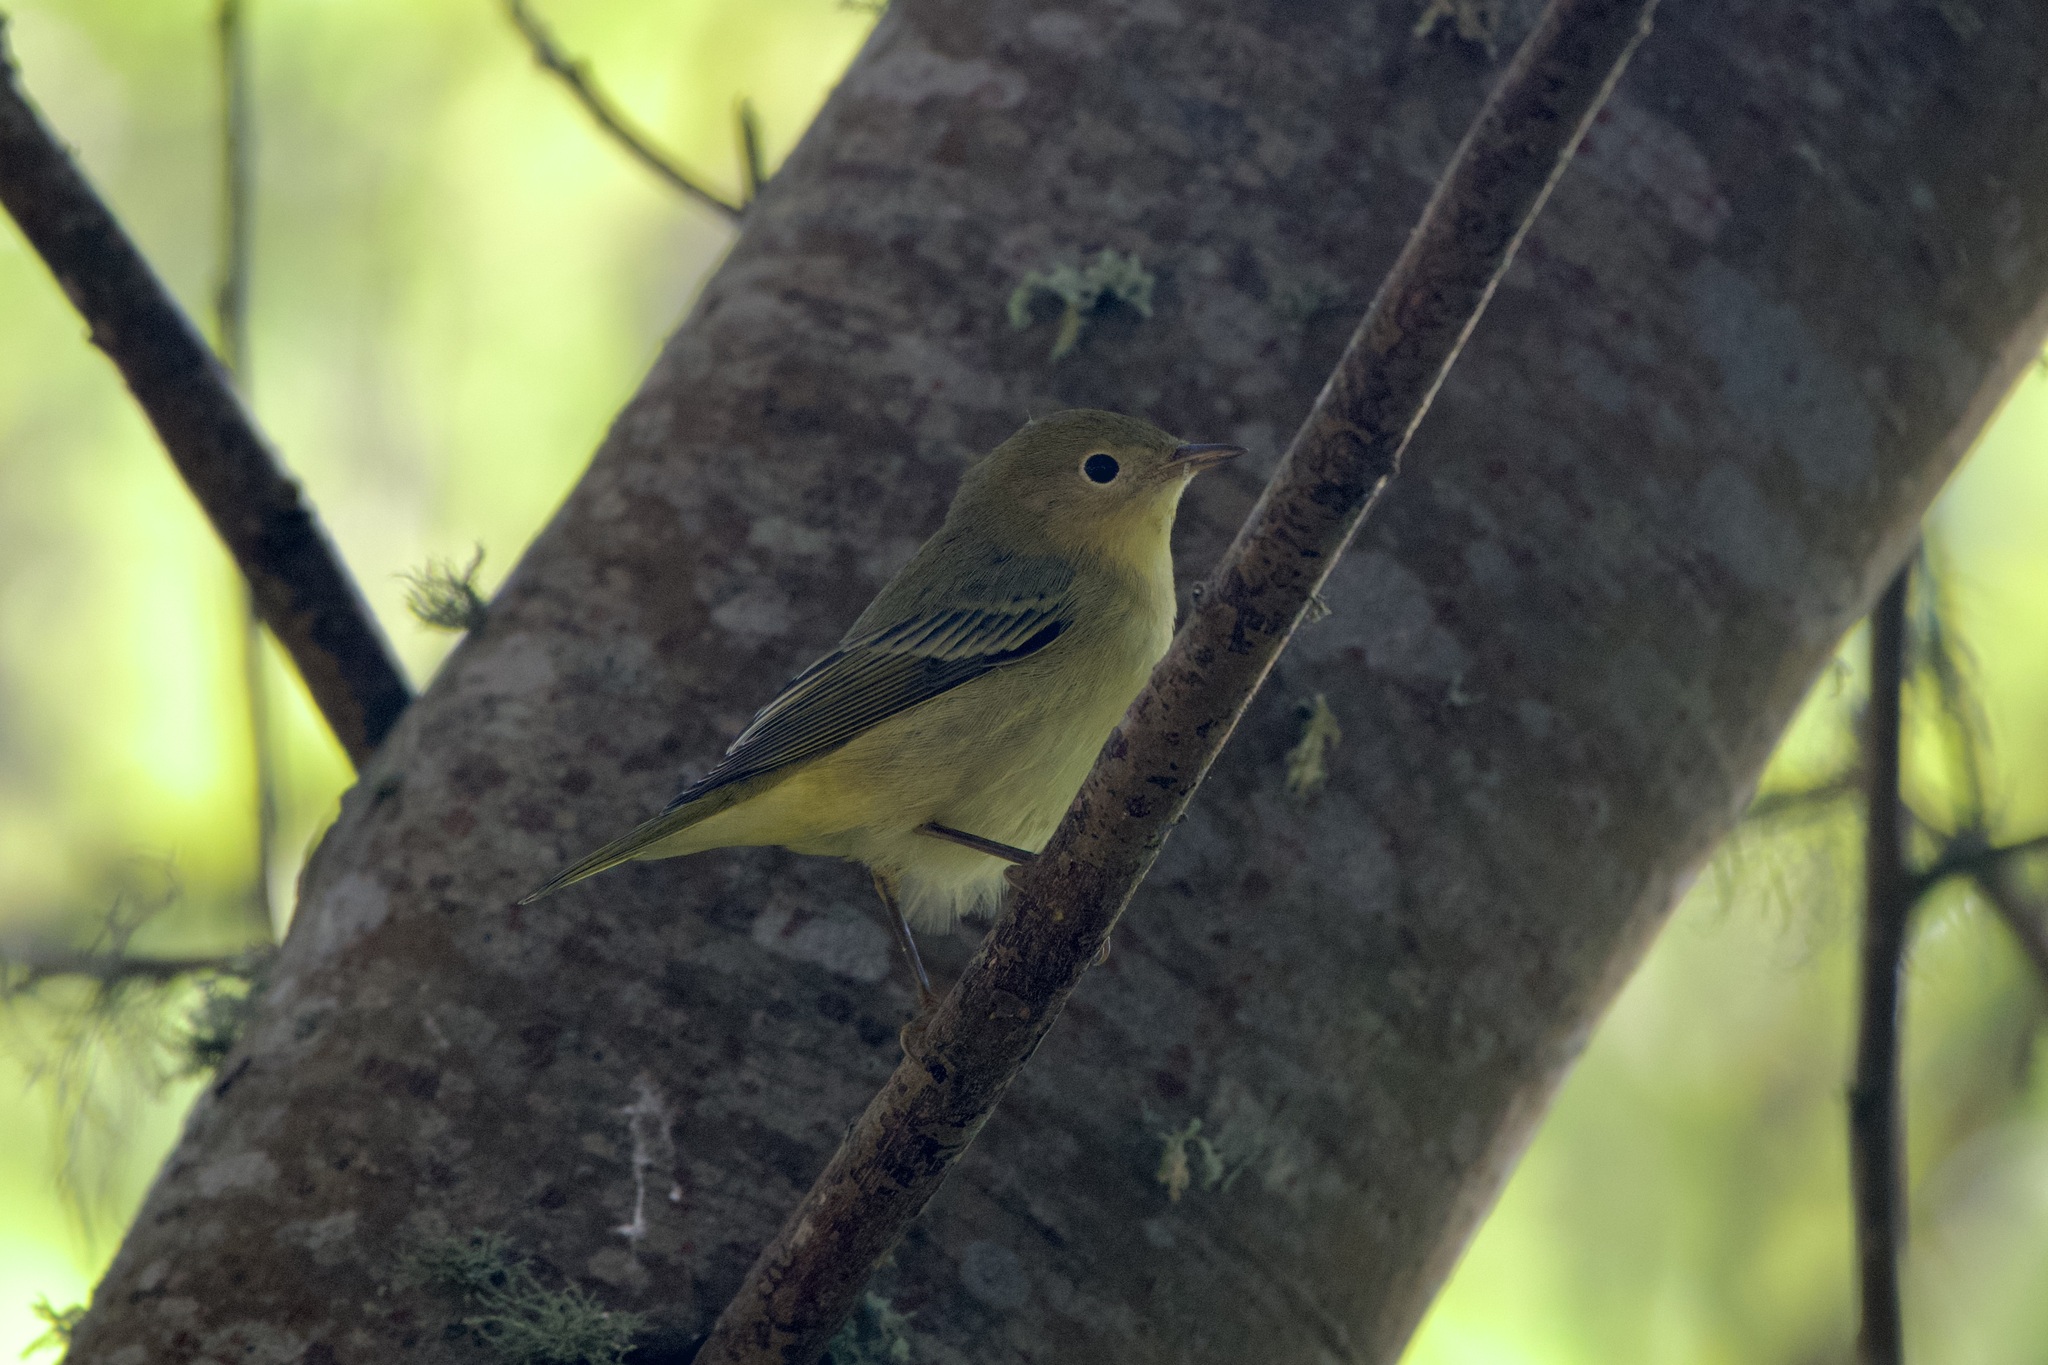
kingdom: Animalia
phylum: Chordata
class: Aves
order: Passeriformes
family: Parulidae
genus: Setophaga
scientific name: Setophaga petechia
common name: Yellow warbler
